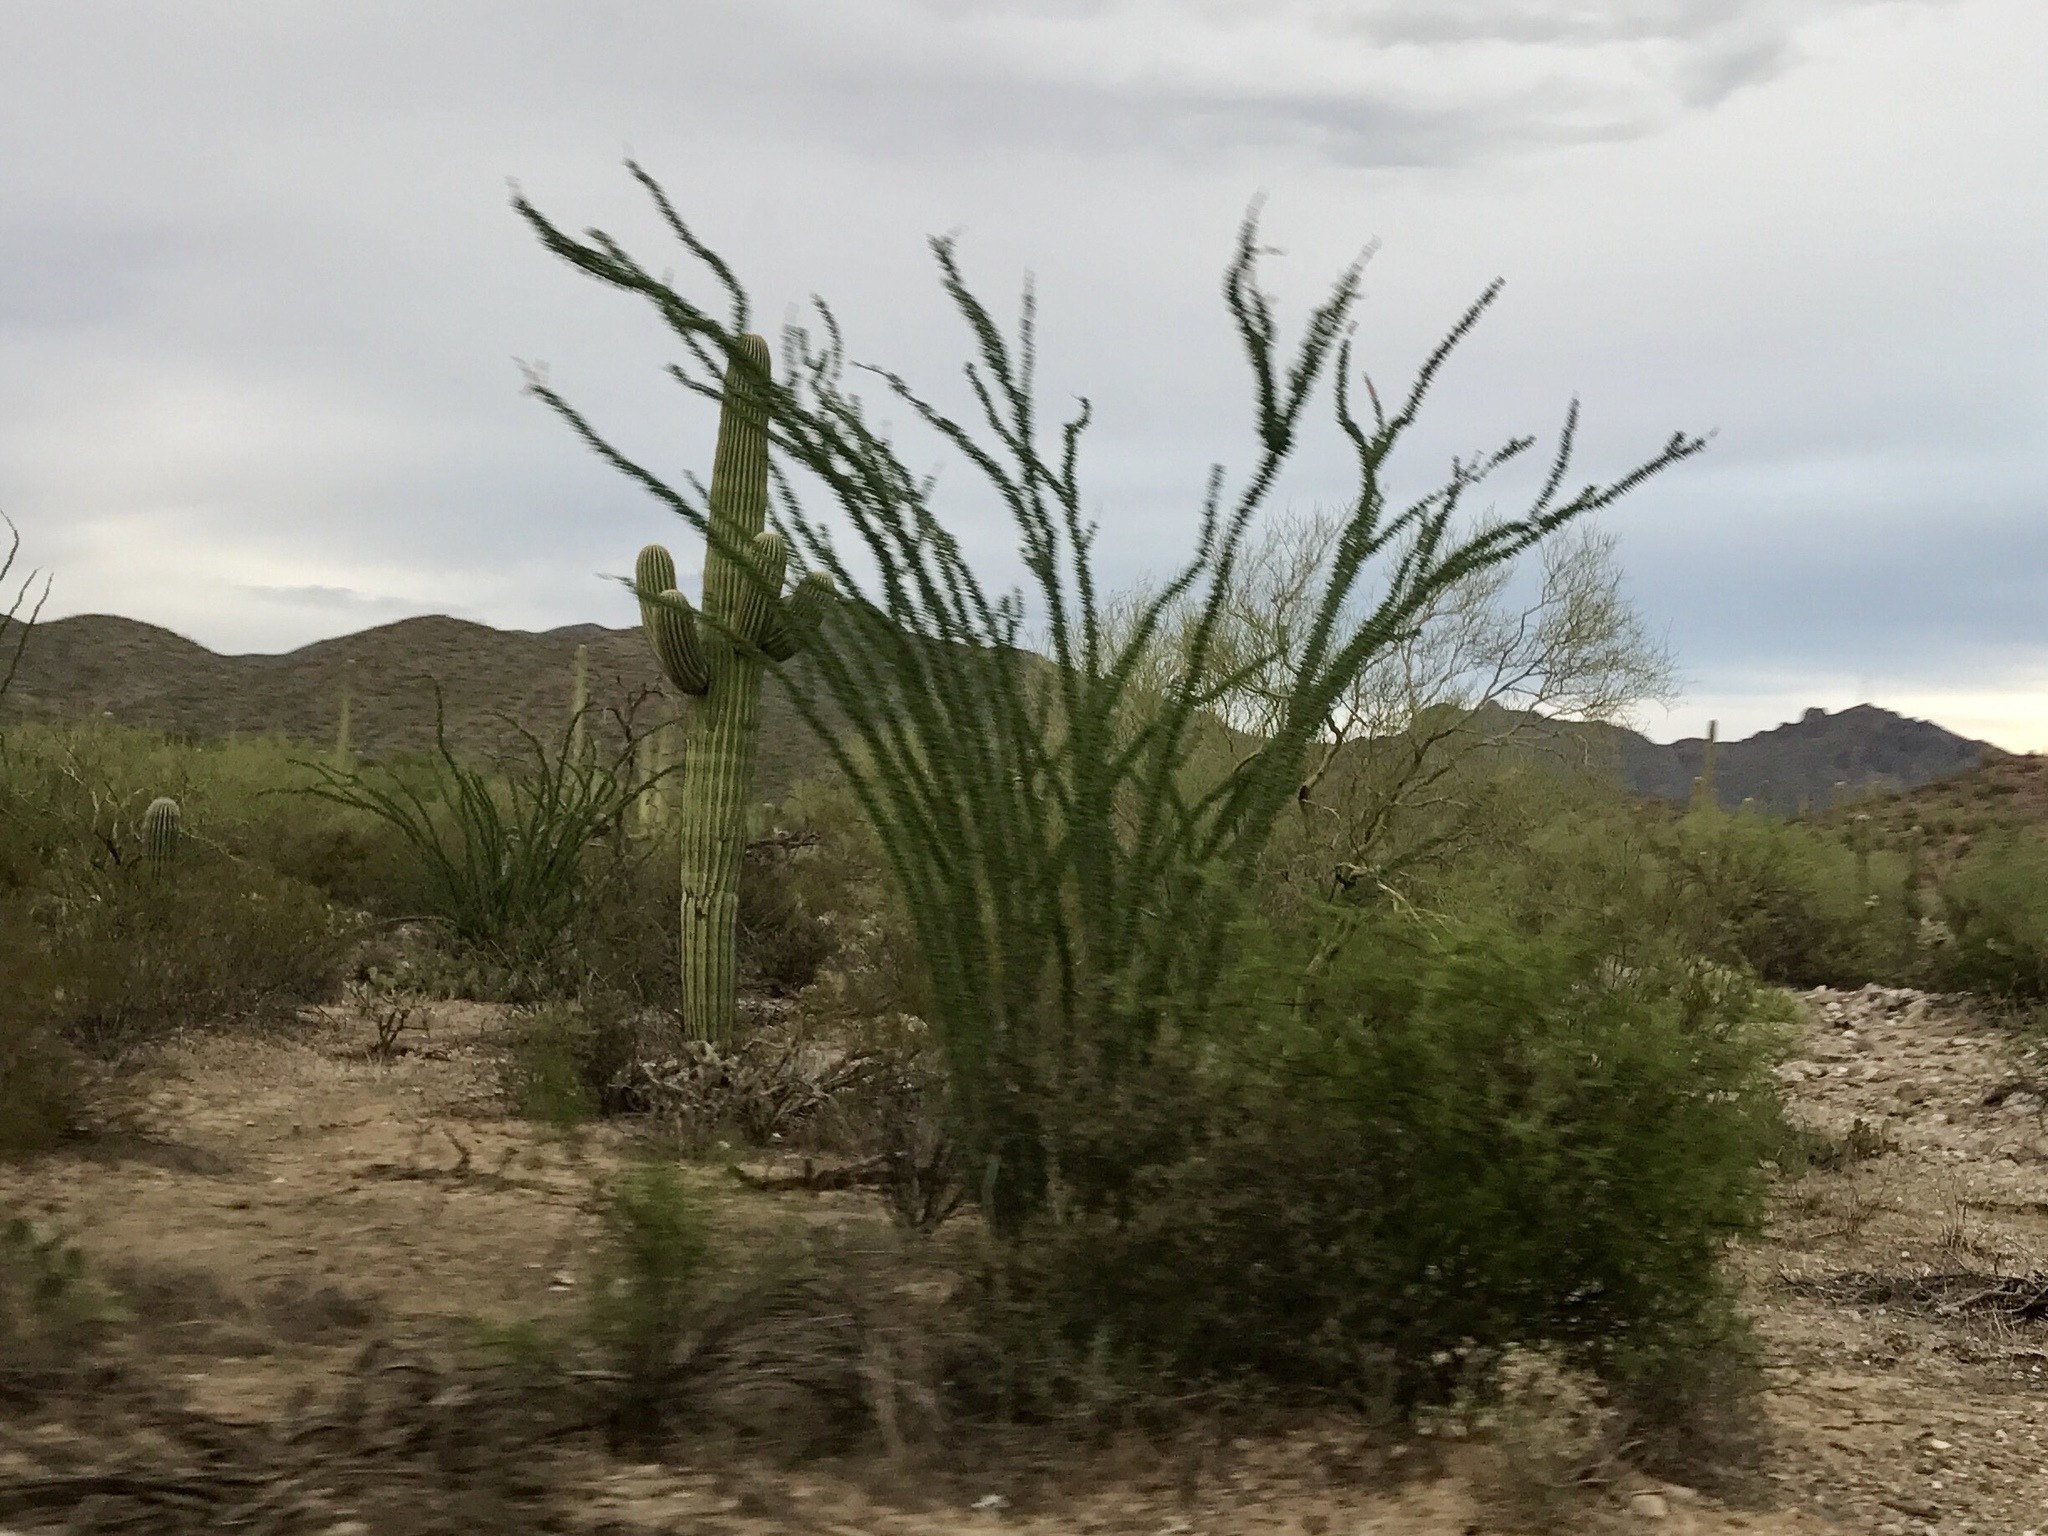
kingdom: Plantae
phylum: Tracheophyta
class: Magnoliopsida
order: Ericales
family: Fouquieriaceae
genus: Fouquieria
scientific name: Fouquieria splendens
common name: Vine-cactus
